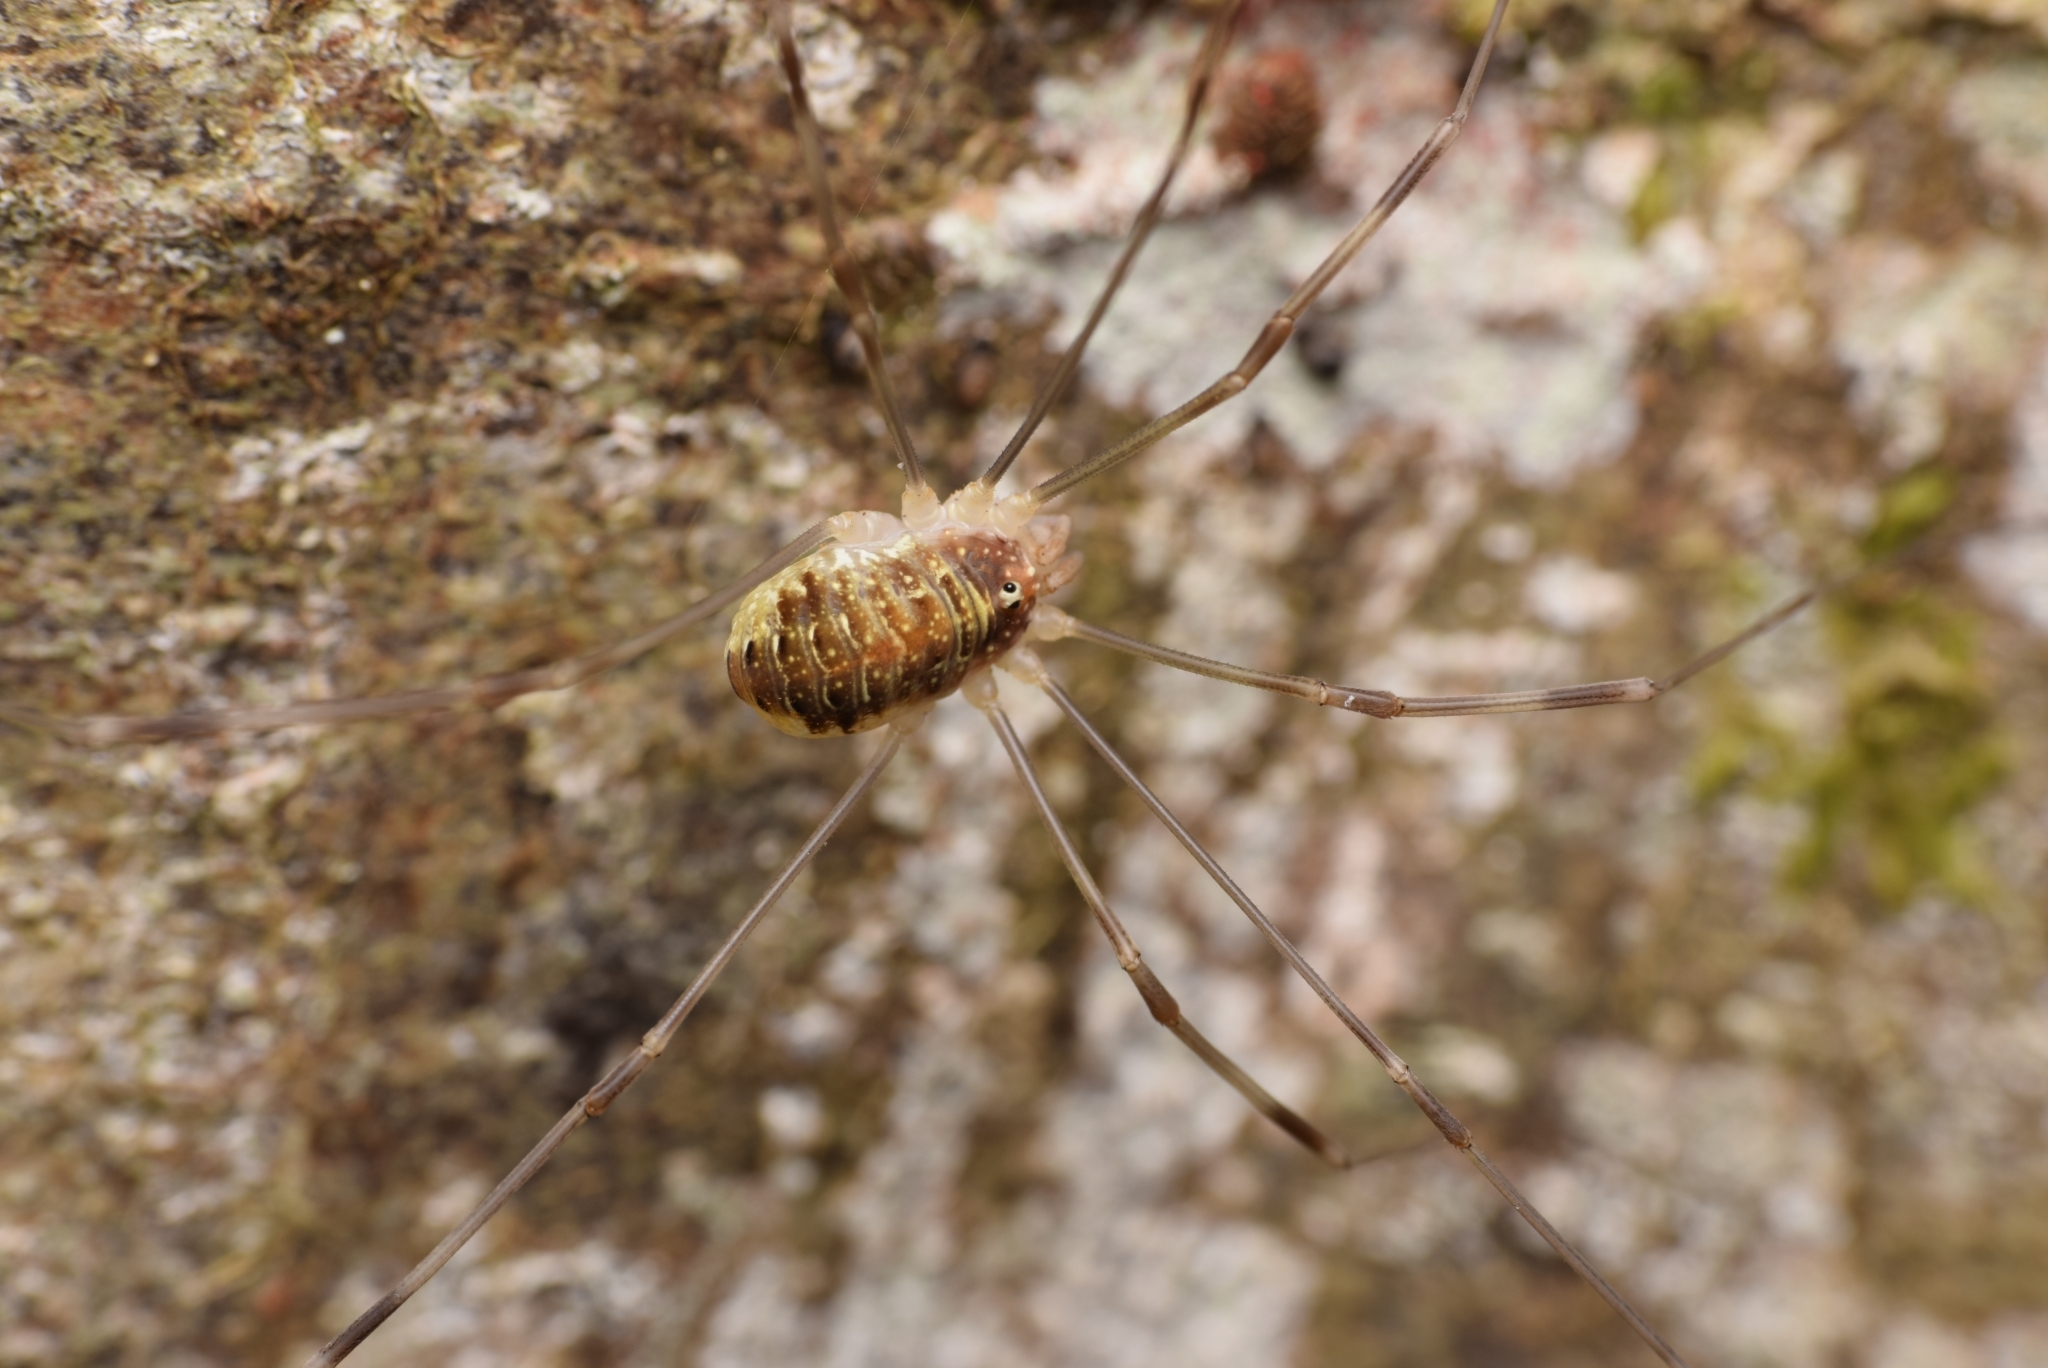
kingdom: Animalia
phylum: Arthropoda
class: Arachnida
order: Opiliones
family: Phalangiidae
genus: Opilio
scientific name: Opilio canestrinii
